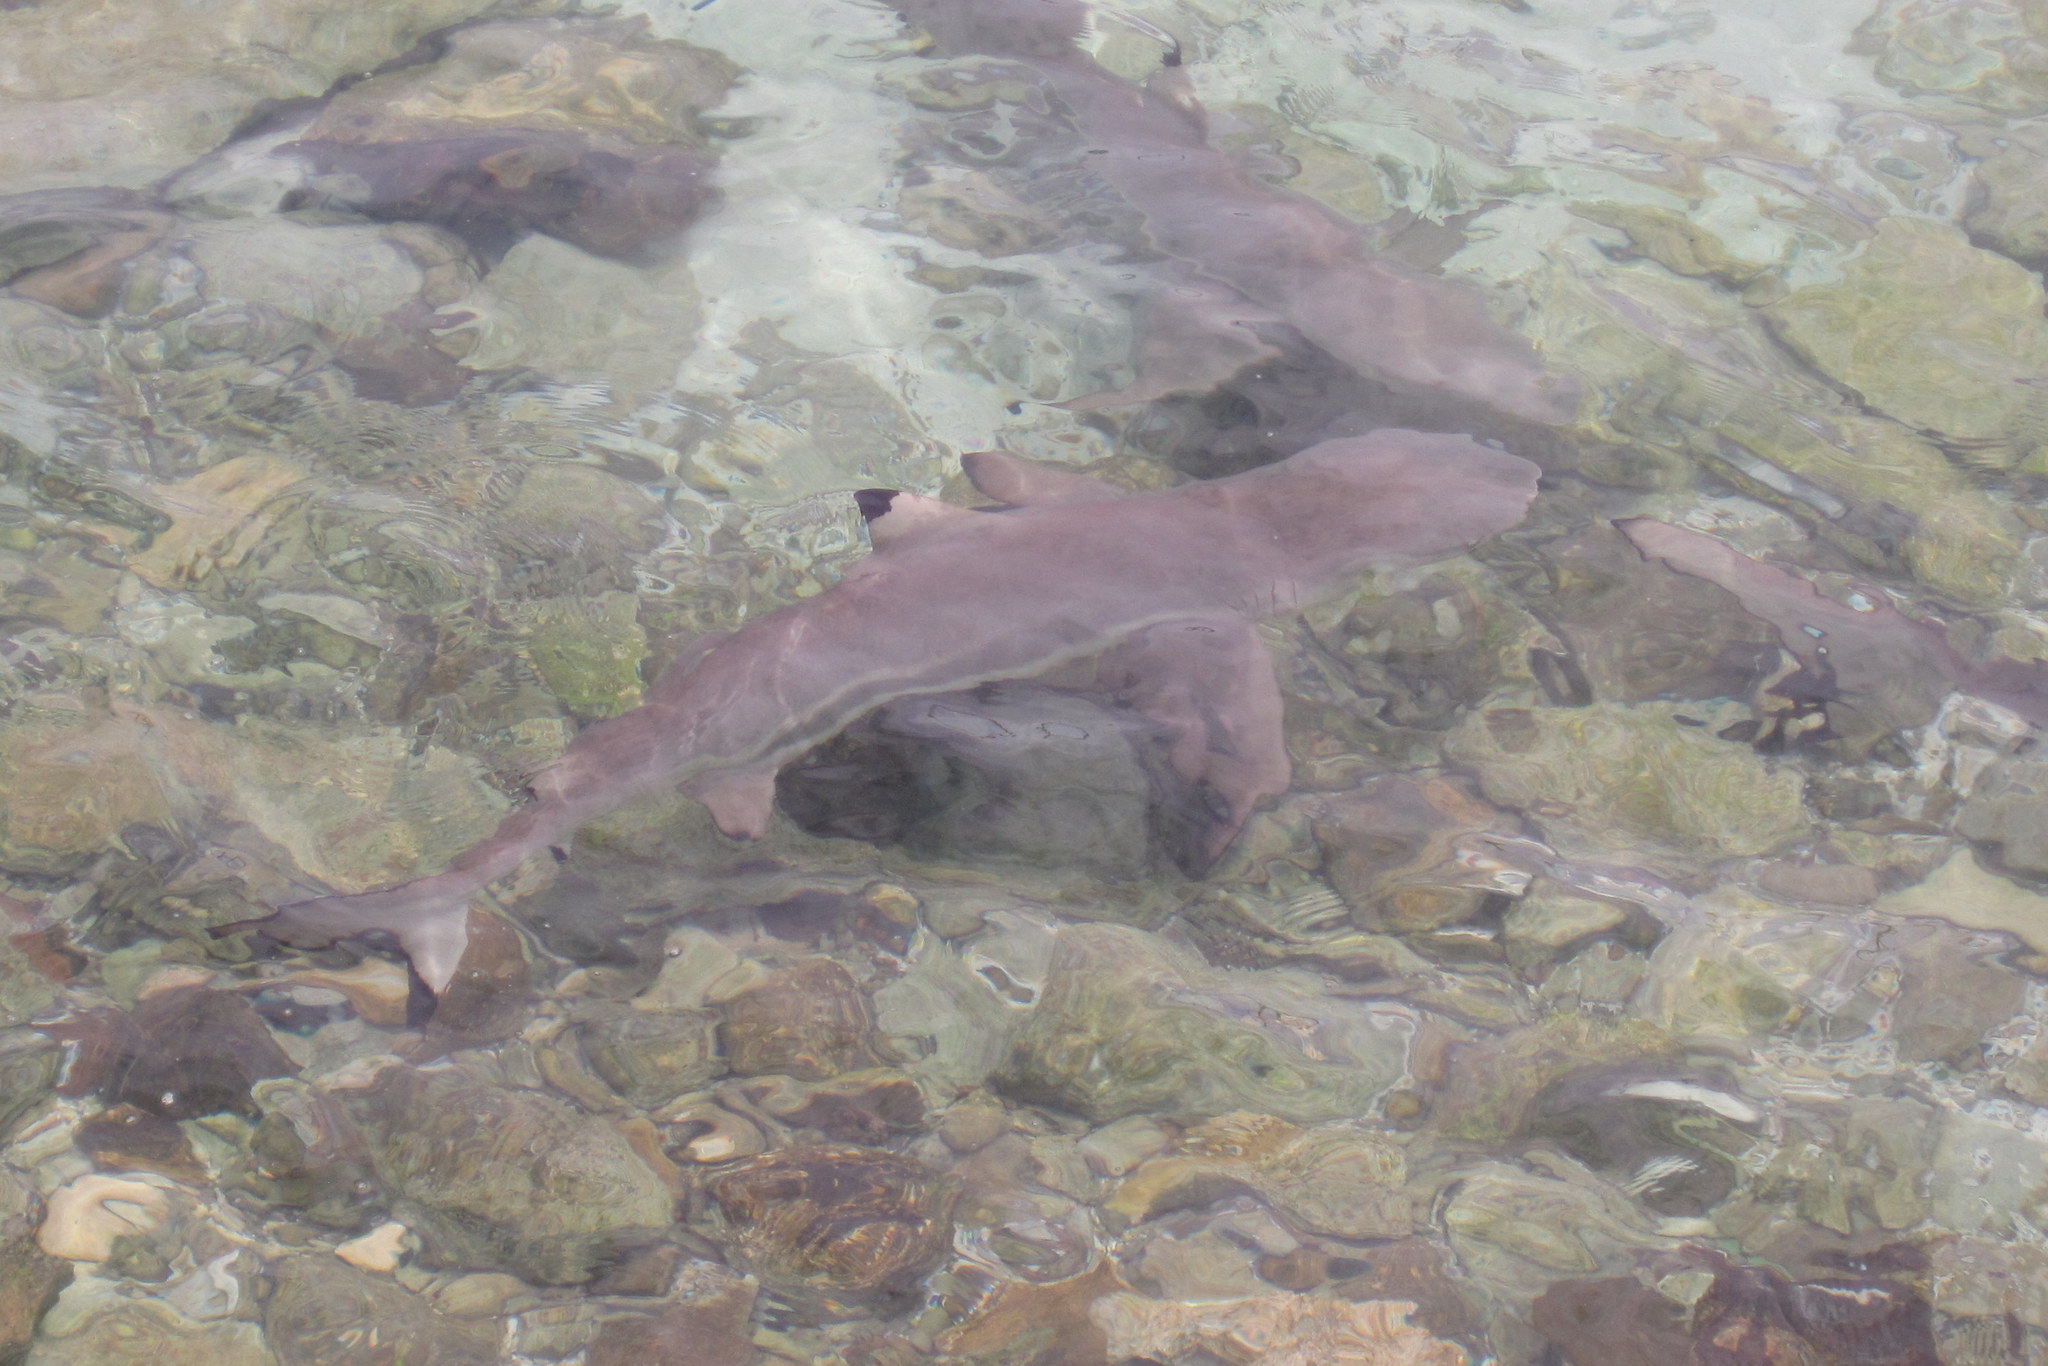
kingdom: Animalia
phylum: Chordata
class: Elasmobranchii
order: Carcharhiniformes
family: Carcharhinidae
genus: Carcharhinus
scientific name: Carcharhinus melanopterus
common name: Blacktip reef shark
